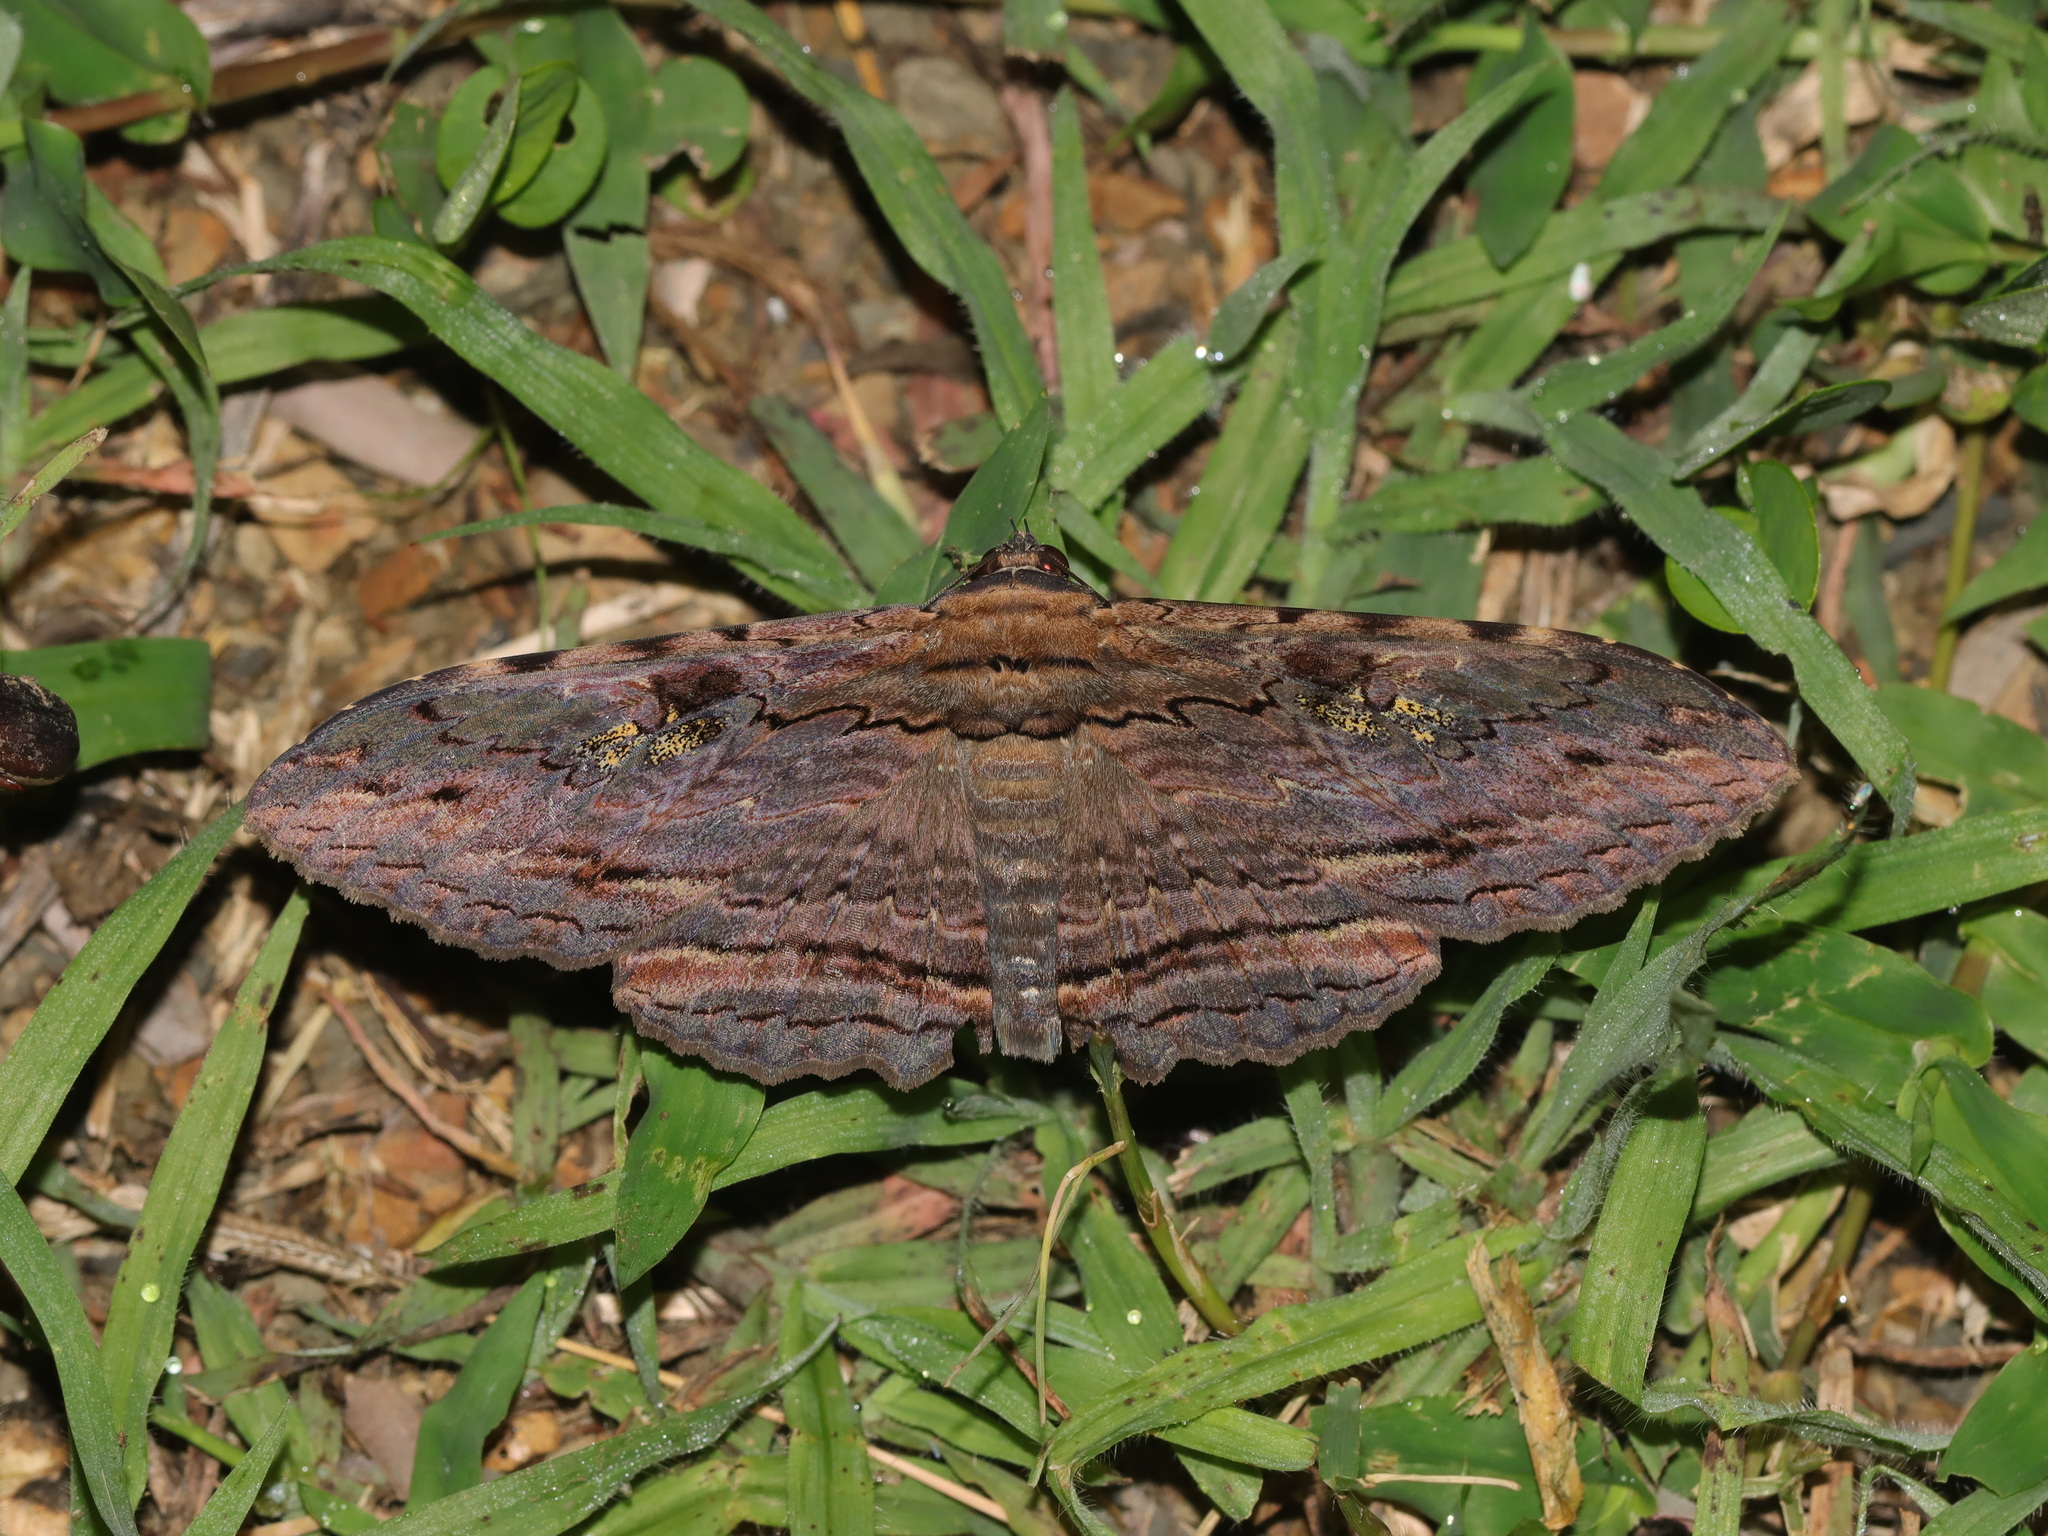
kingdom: Animalia
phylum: Arthropoda
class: Insecta
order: Lepidoptera
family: Erebidae
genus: Anisoneura
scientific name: Anisoneura aluco
